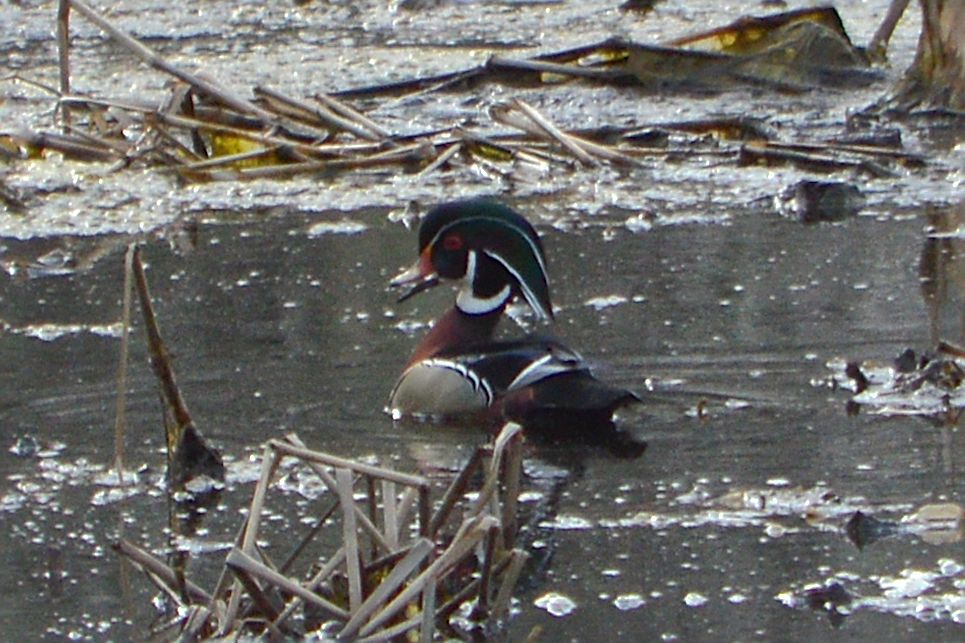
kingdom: Animalia
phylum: Chordata
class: Aves
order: Anseriformes
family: Anatidae
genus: Aix
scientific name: Aix sponsa
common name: Wood duck
